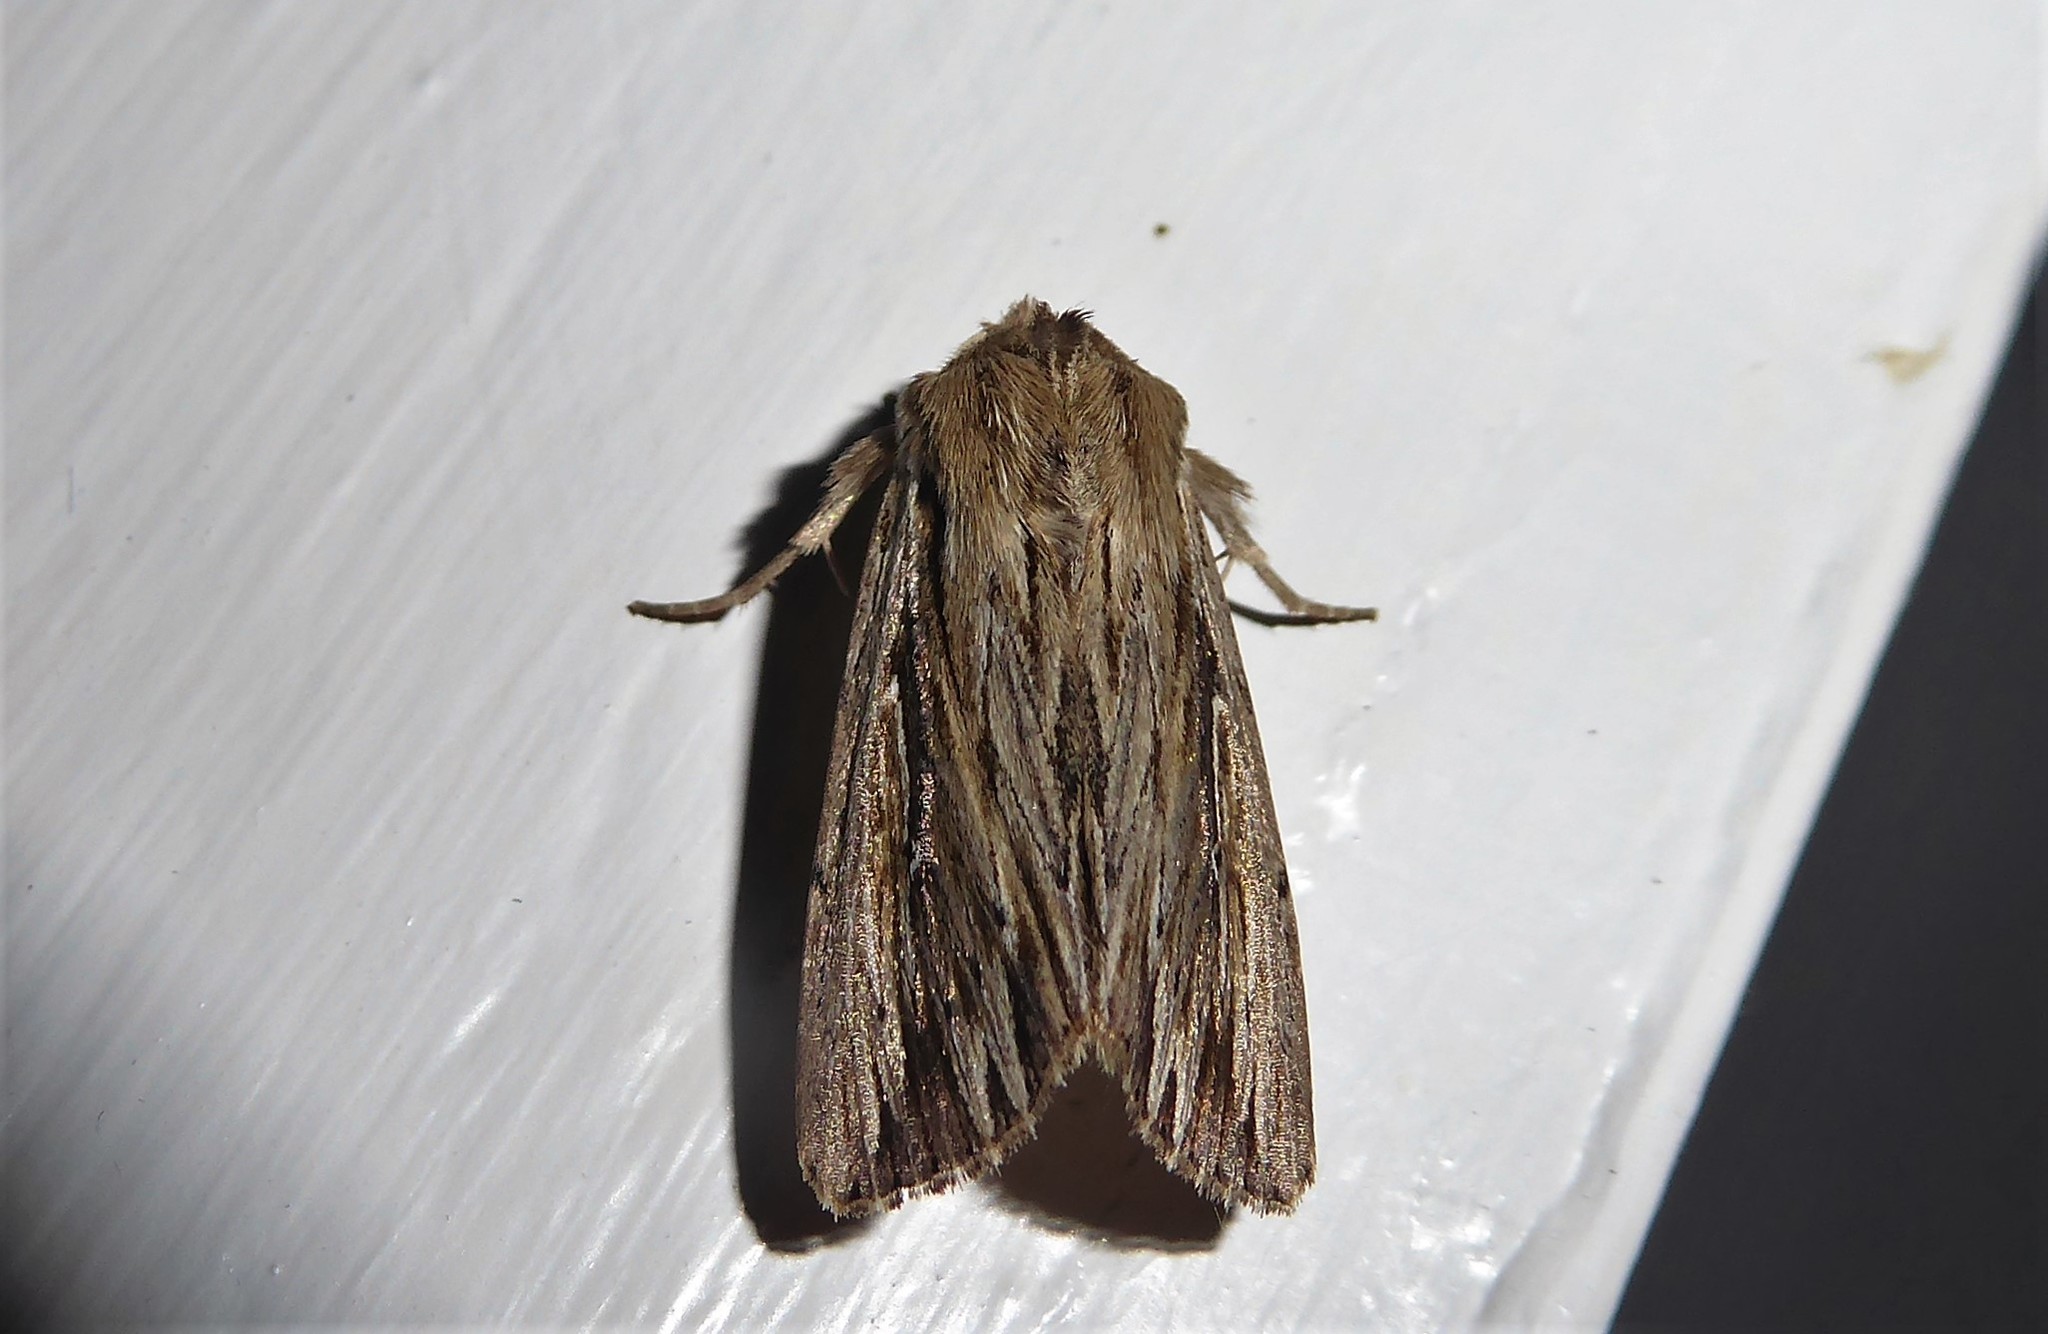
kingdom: Animalia
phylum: Arthropoda
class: Insecta
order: Lepidoptera
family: Noctuidae
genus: Persectania
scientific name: Persectania aversa
